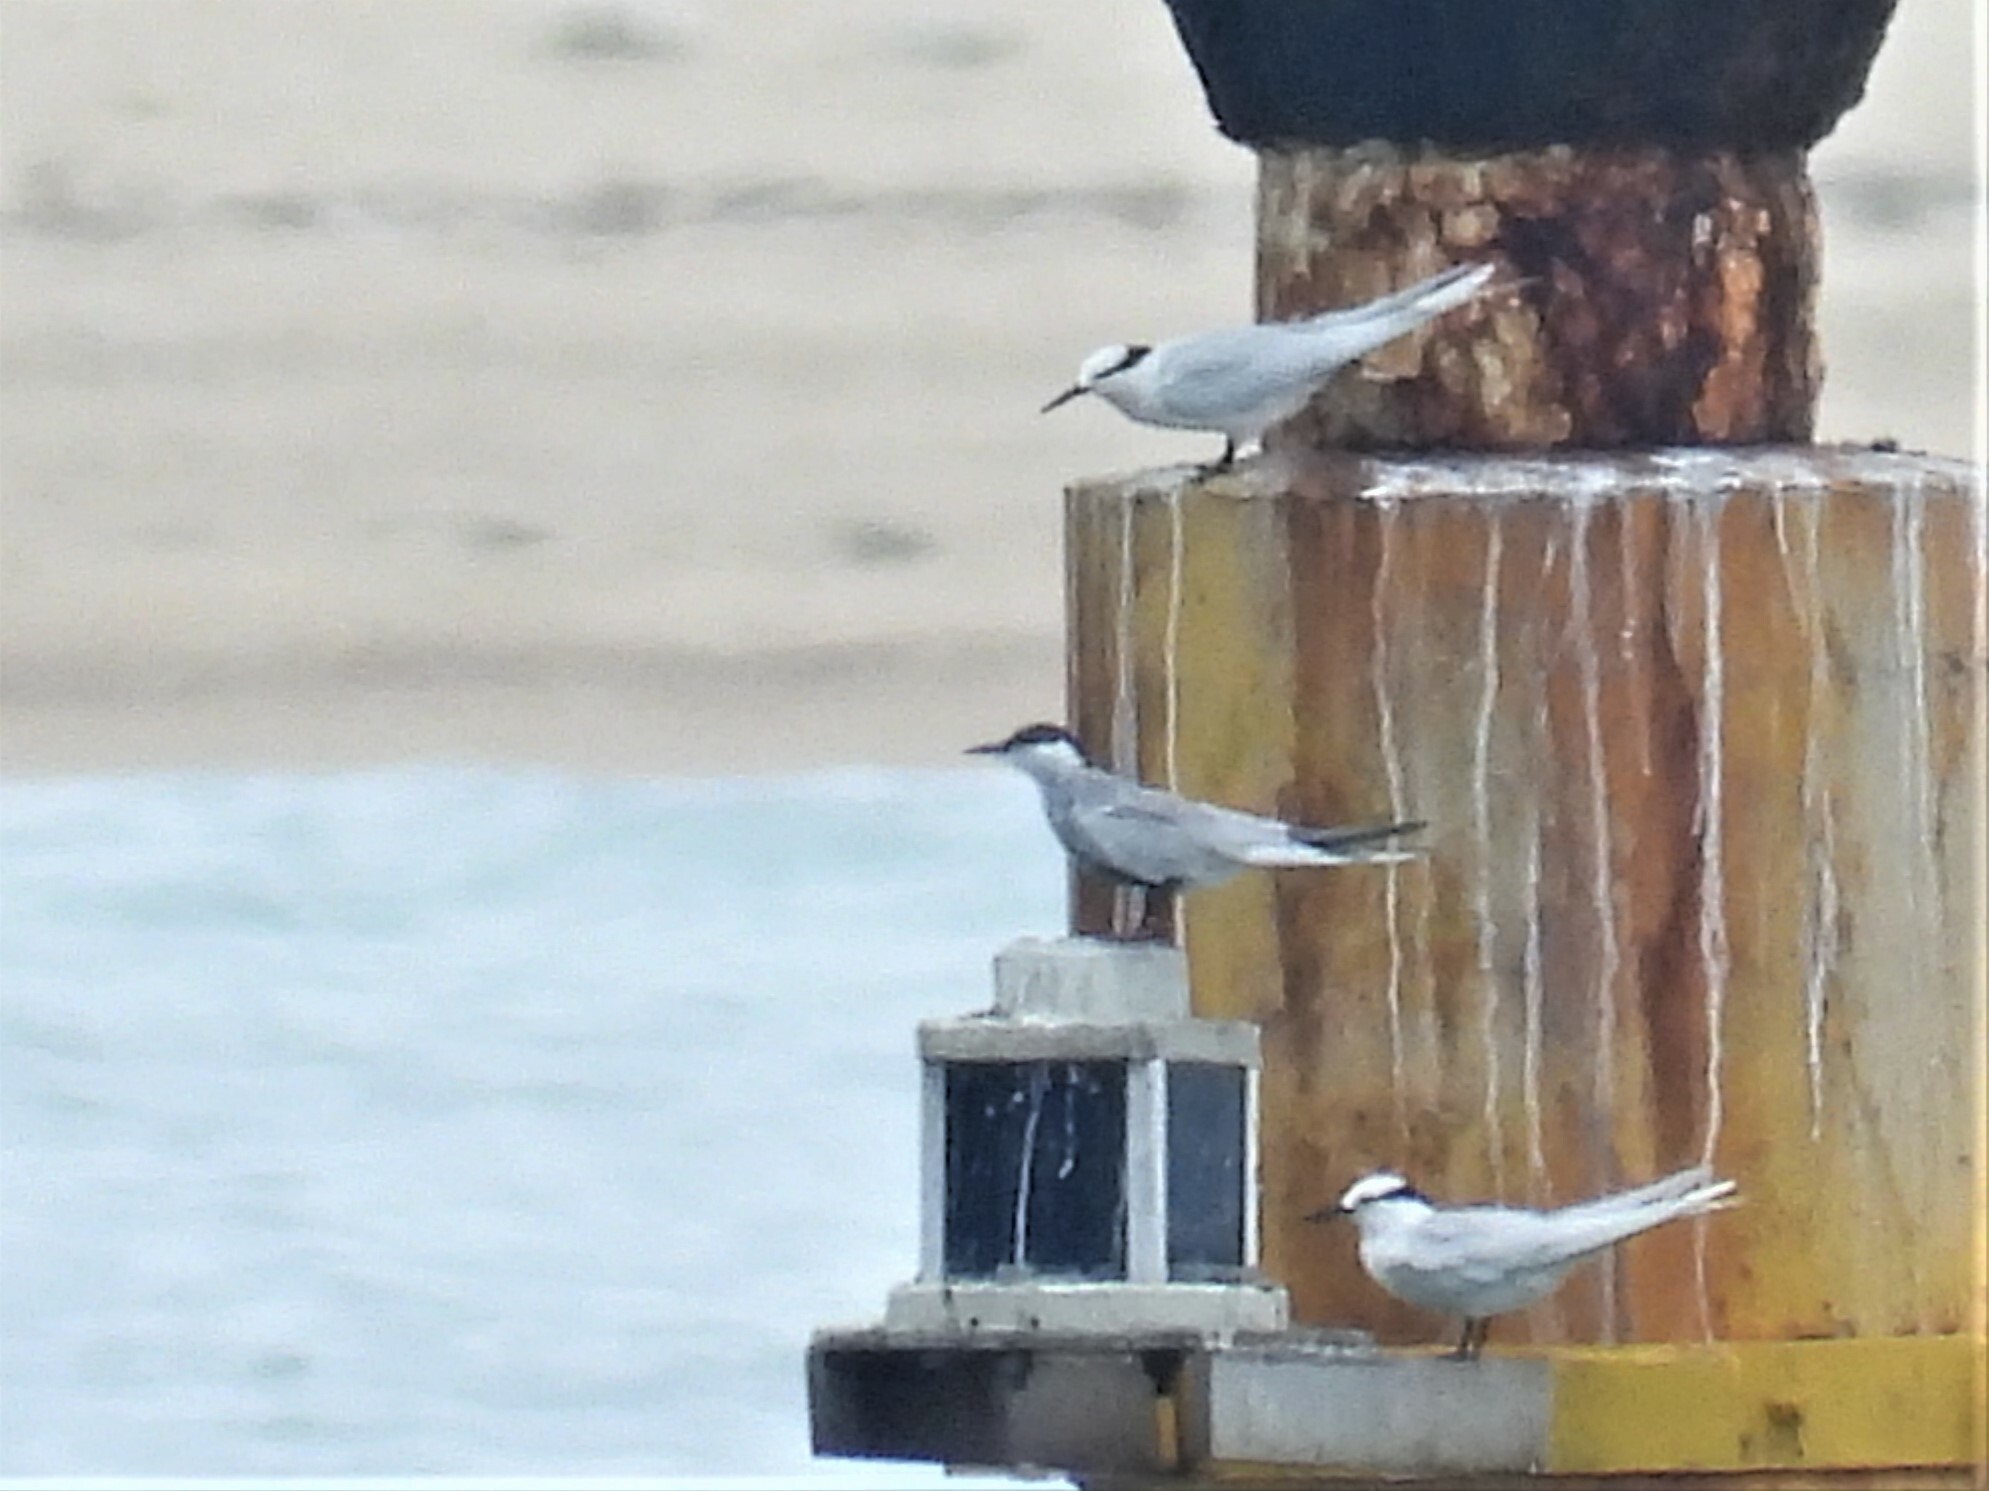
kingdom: Animalia
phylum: Chordata
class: Aves
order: Charadriiformes
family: Laridae
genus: Chlidonias
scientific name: Chlidonias hybrida
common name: Whiskered tern
